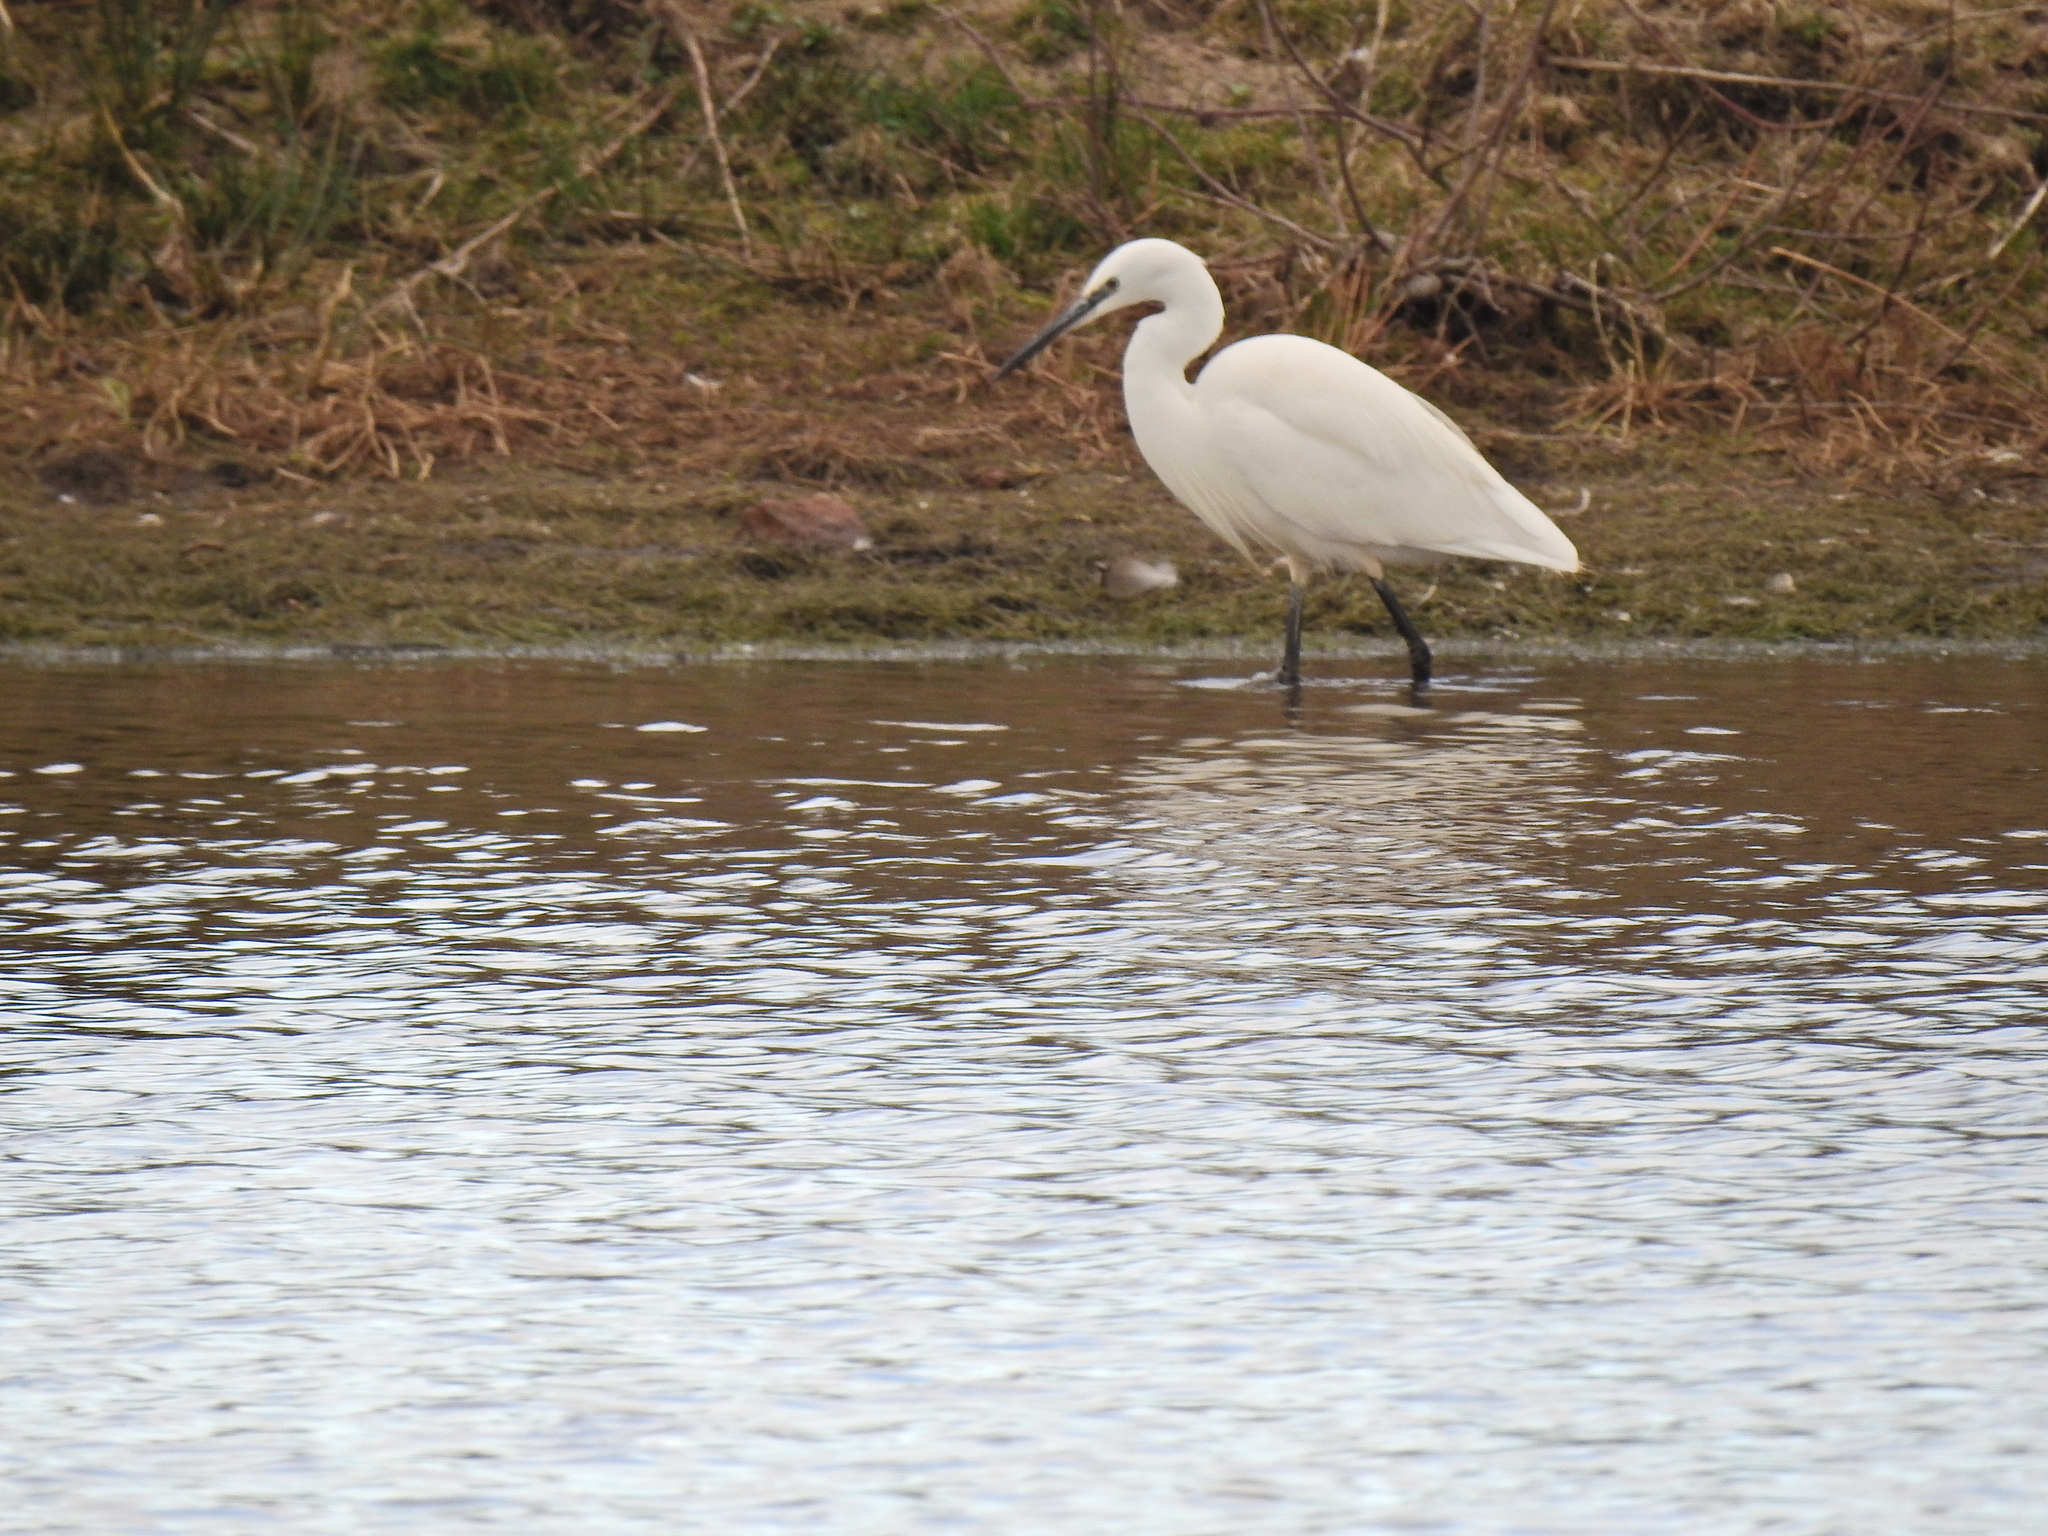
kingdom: Animalia
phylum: Chordata
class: Aves
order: Pelecaniformes
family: Ardeidae
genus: Egretta
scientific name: Egretta garzetta
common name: Little egret
